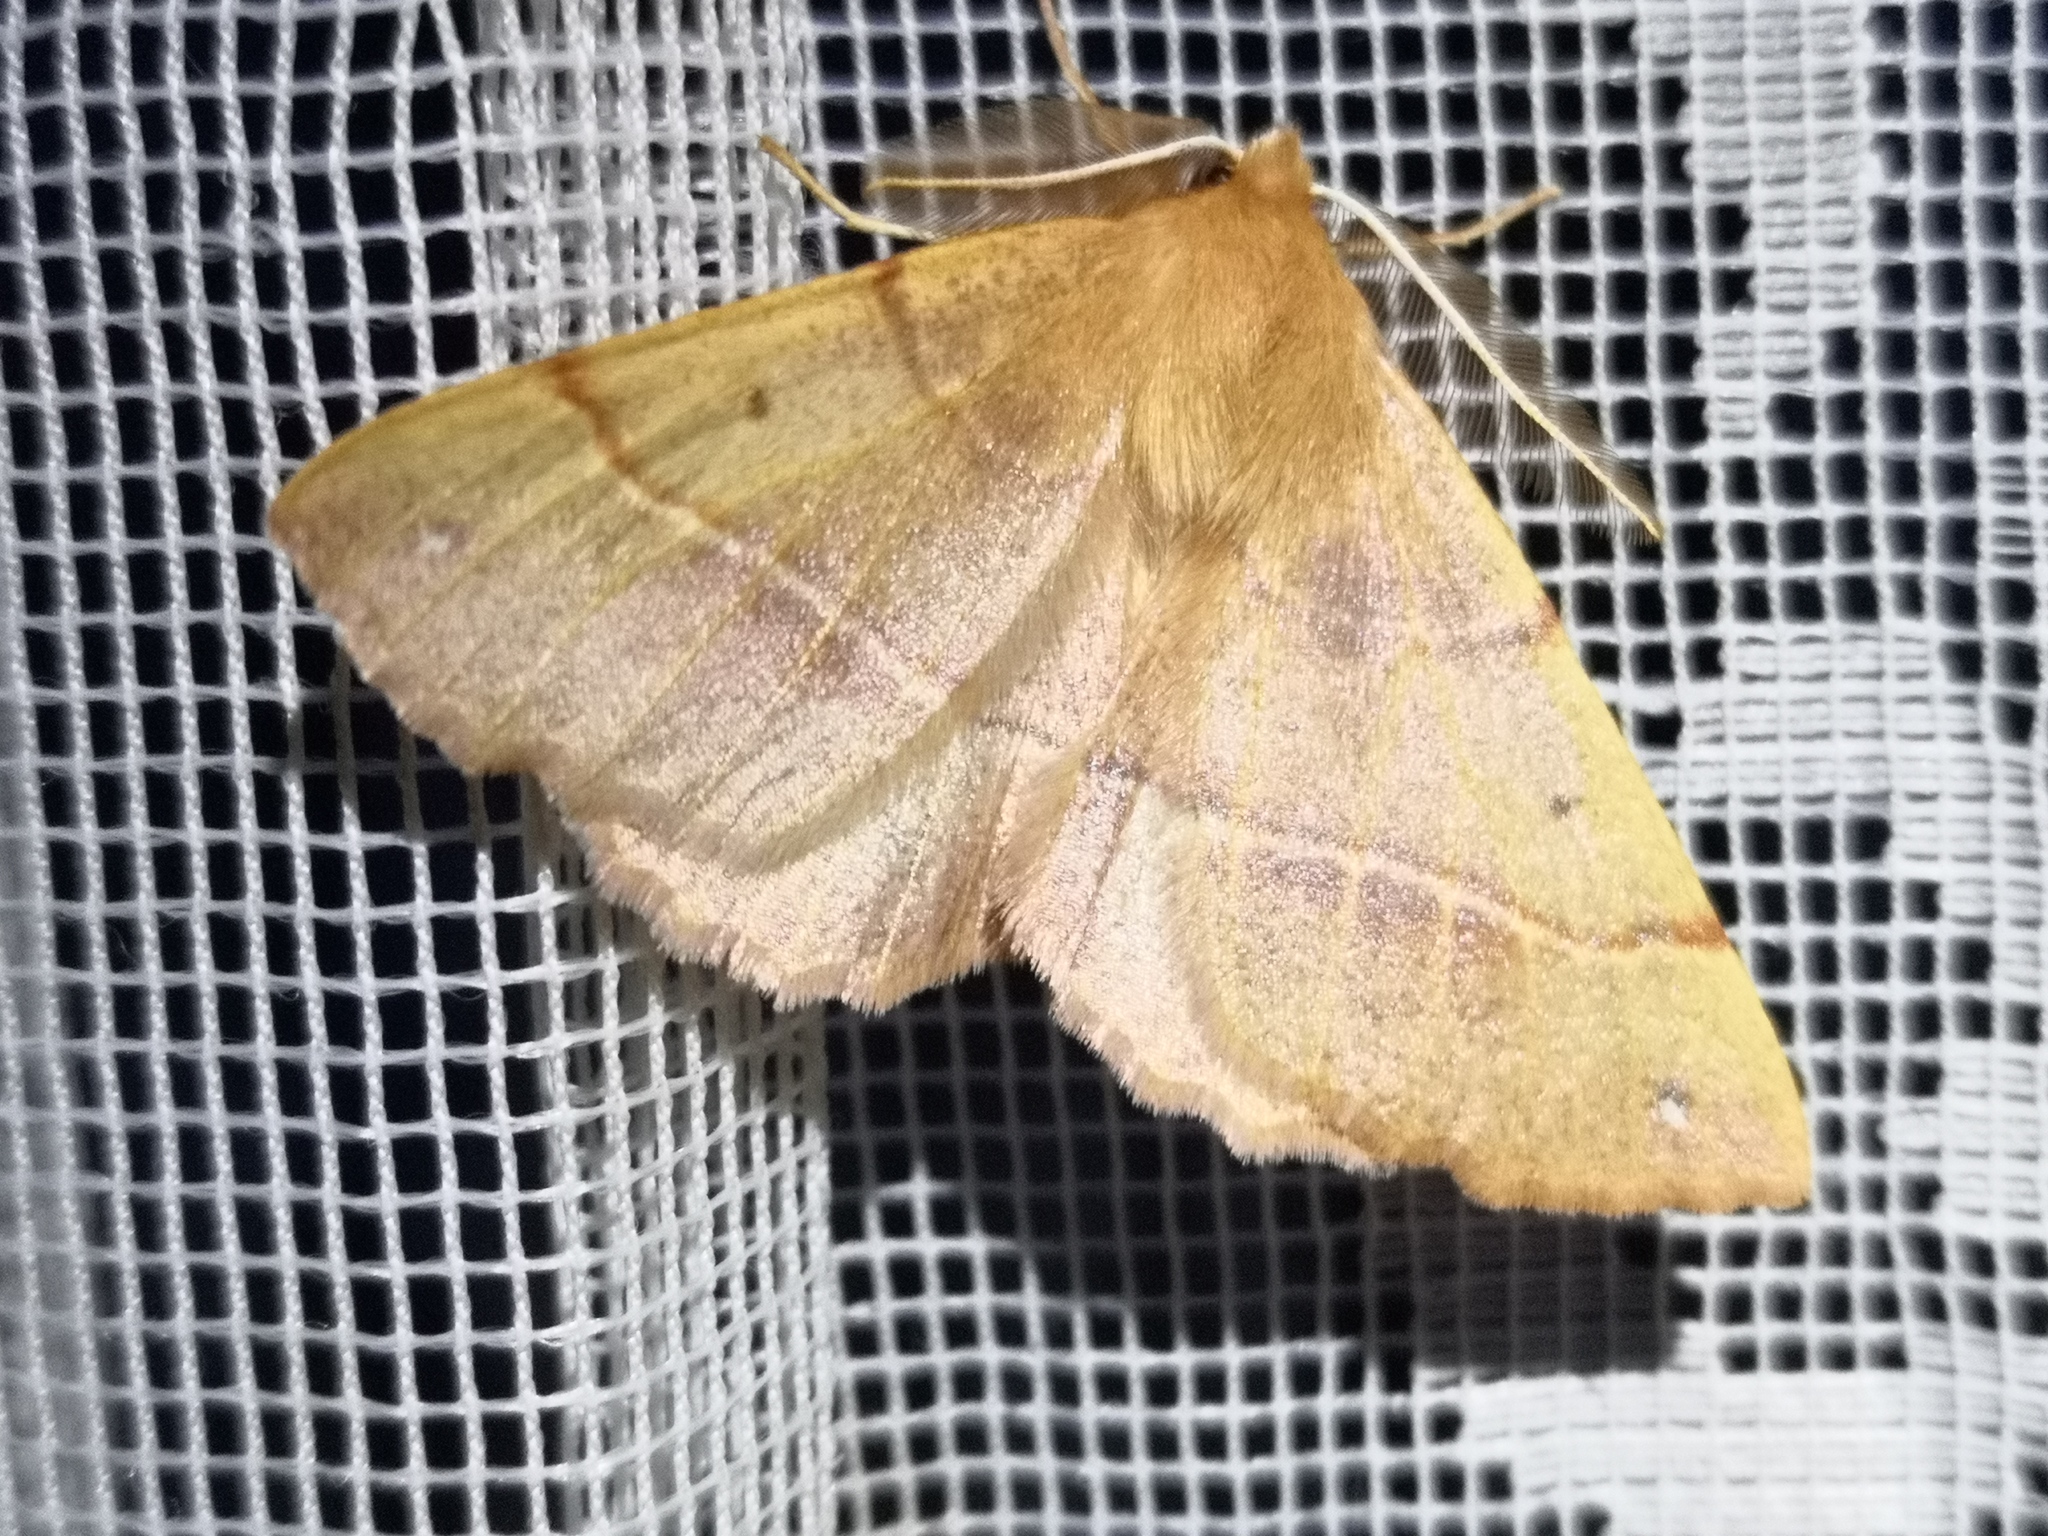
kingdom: Animalia
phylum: Arthropoda
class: Insecta
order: Lepidoptera
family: Geometridae
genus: Colotois
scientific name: Colotois pennaria
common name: Feathered thorn
